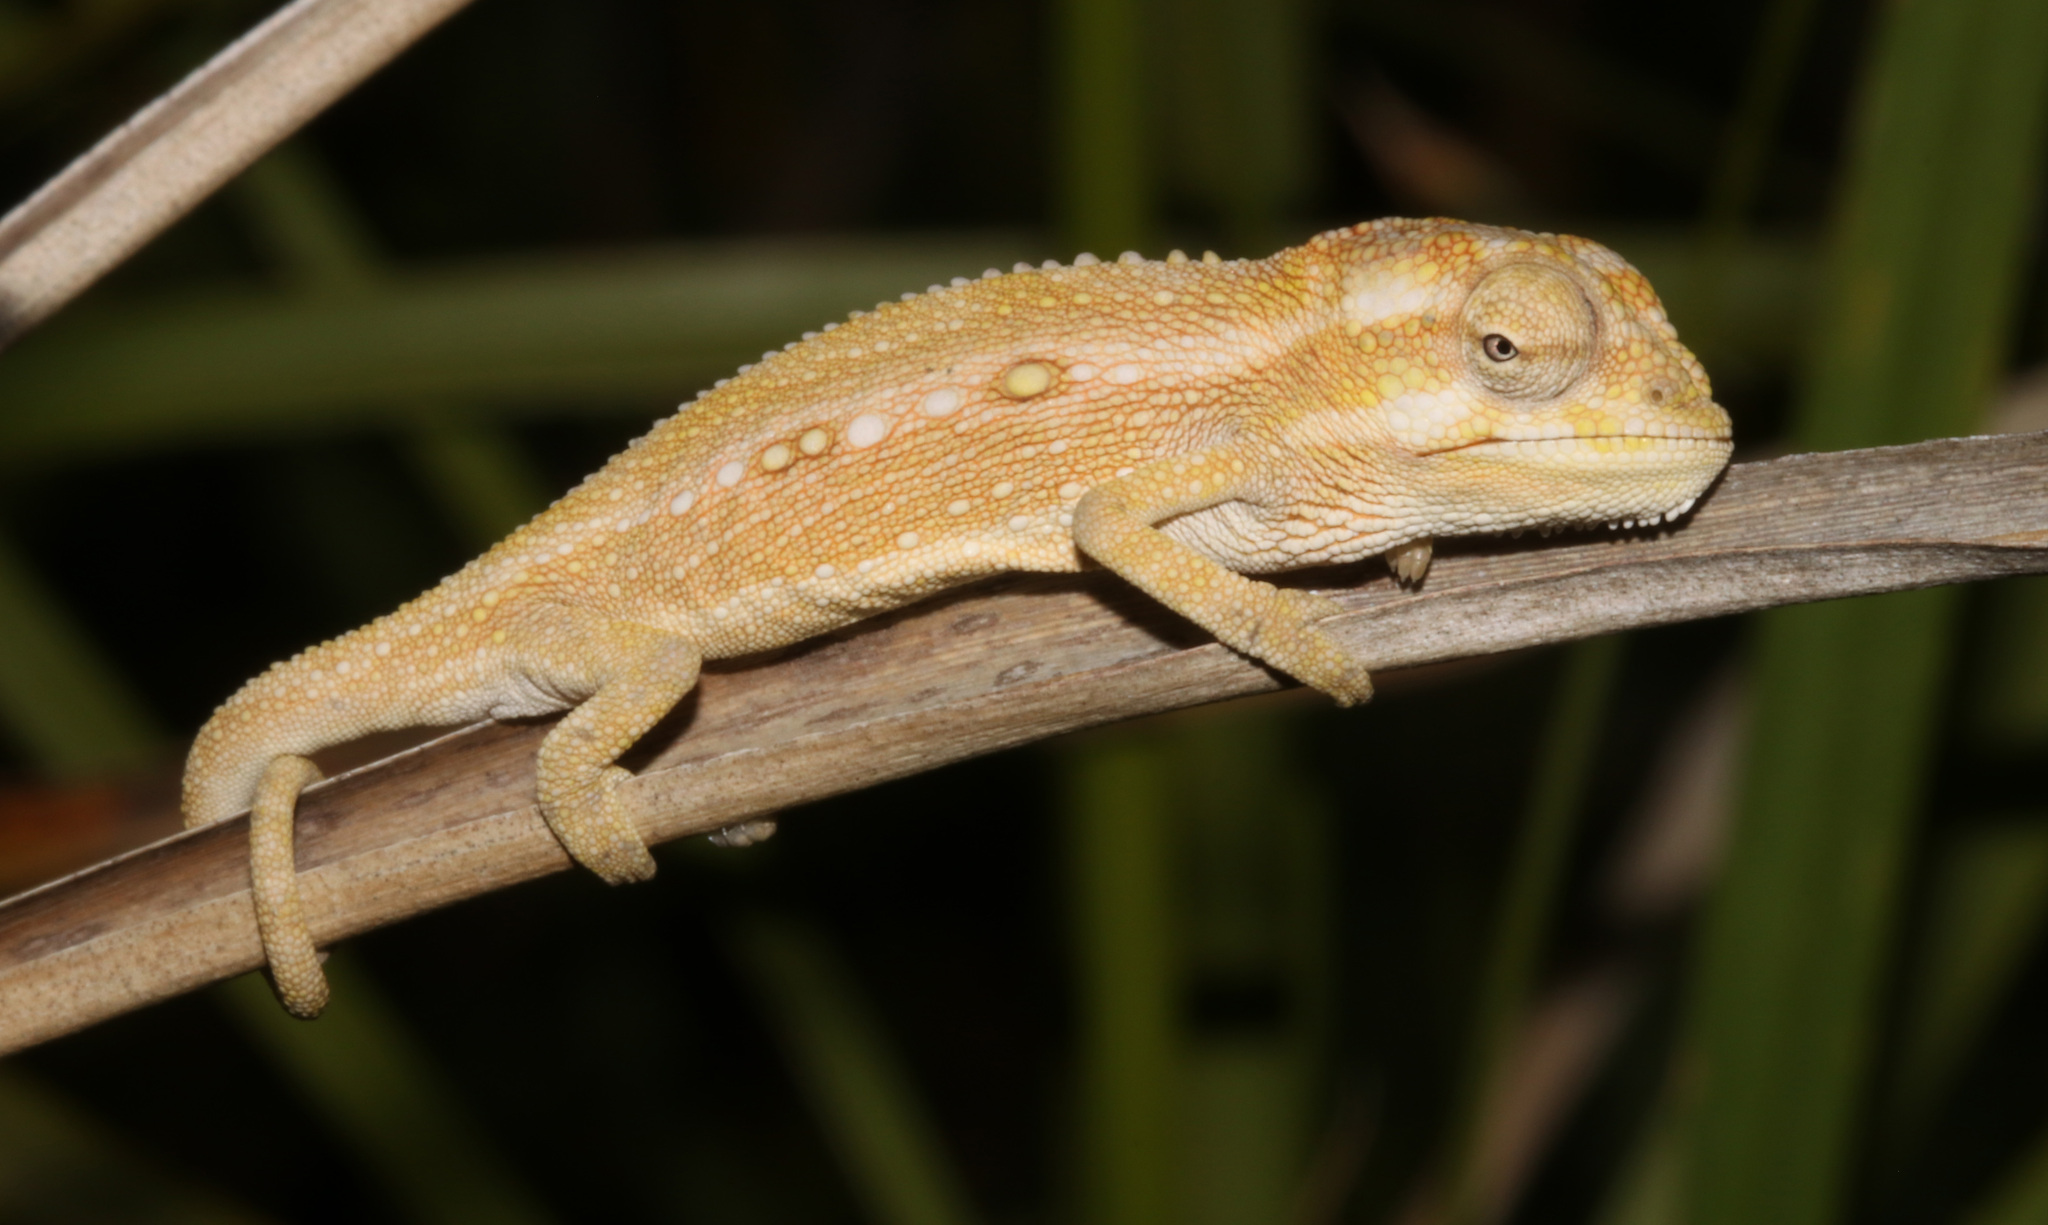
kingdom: Animalia
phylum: Chordata
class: Squamata
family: Chamaeleonidae
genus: Bradypodion
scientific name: Bradypodion pumilum
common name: Cape dwarf chameleon
